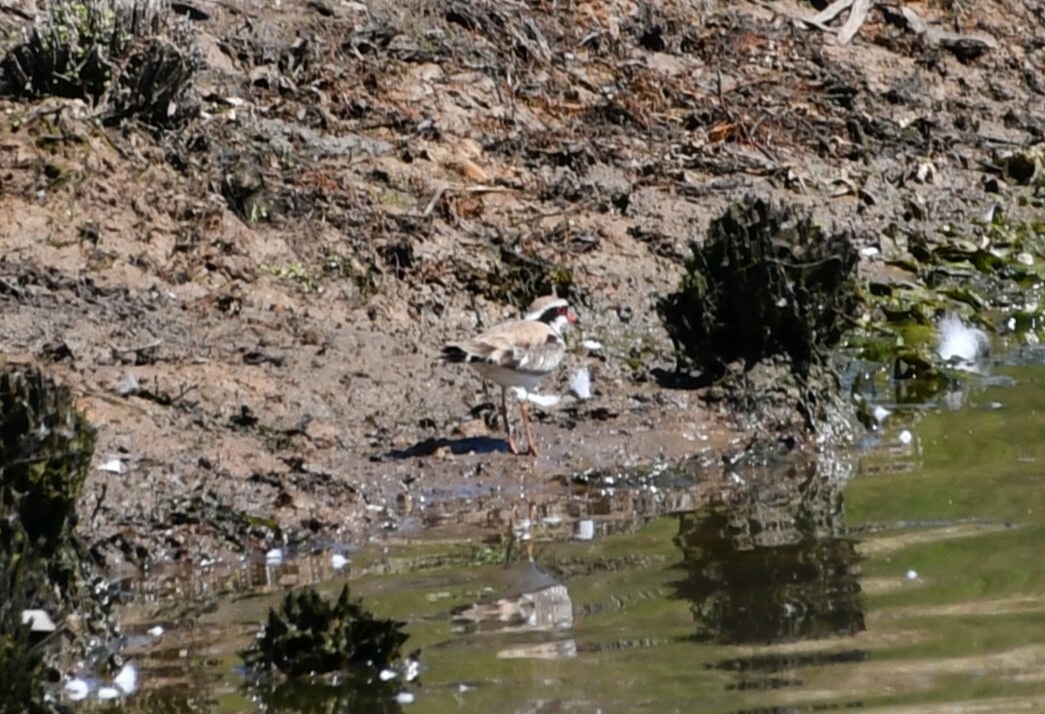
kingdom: Animalia
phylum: Chordata
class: Aves
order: Charadriiformes
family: Charadriidae
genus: Elseyornis
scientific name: Elseyornis melanops
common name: Black-fronted dotterel
